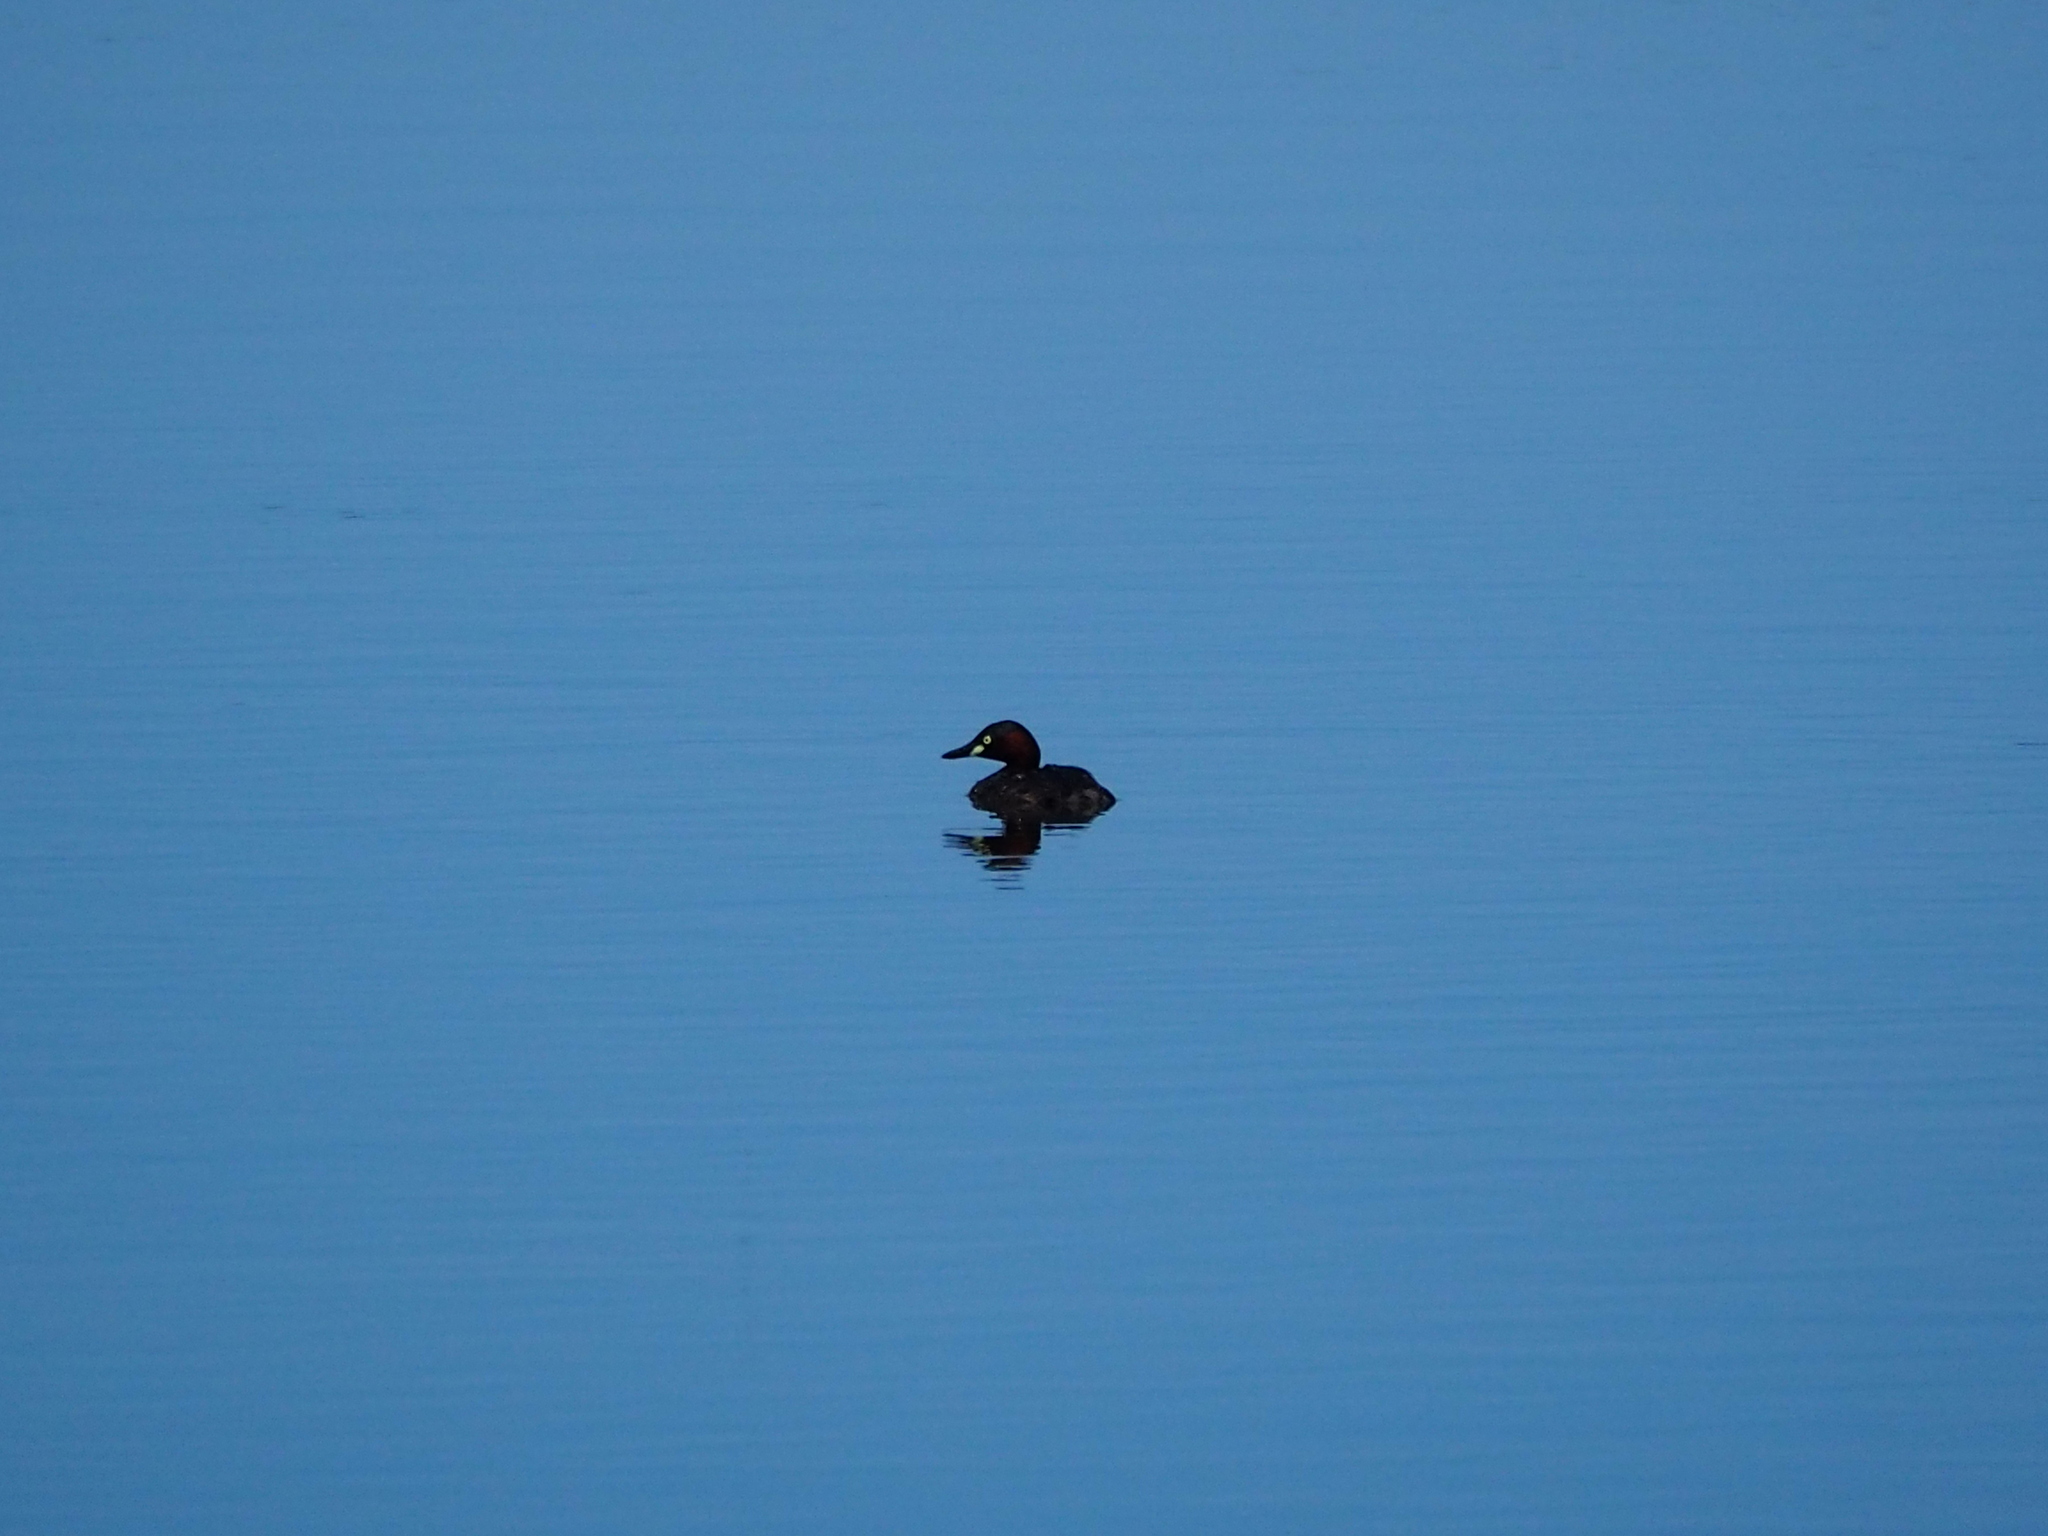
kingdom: Animalia
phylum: Chordata
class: Aves
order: Podicipediformes
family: Podicipedidae
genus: Tachybaptus
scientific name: Tachybaptus ruficollis
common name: Little grebe
